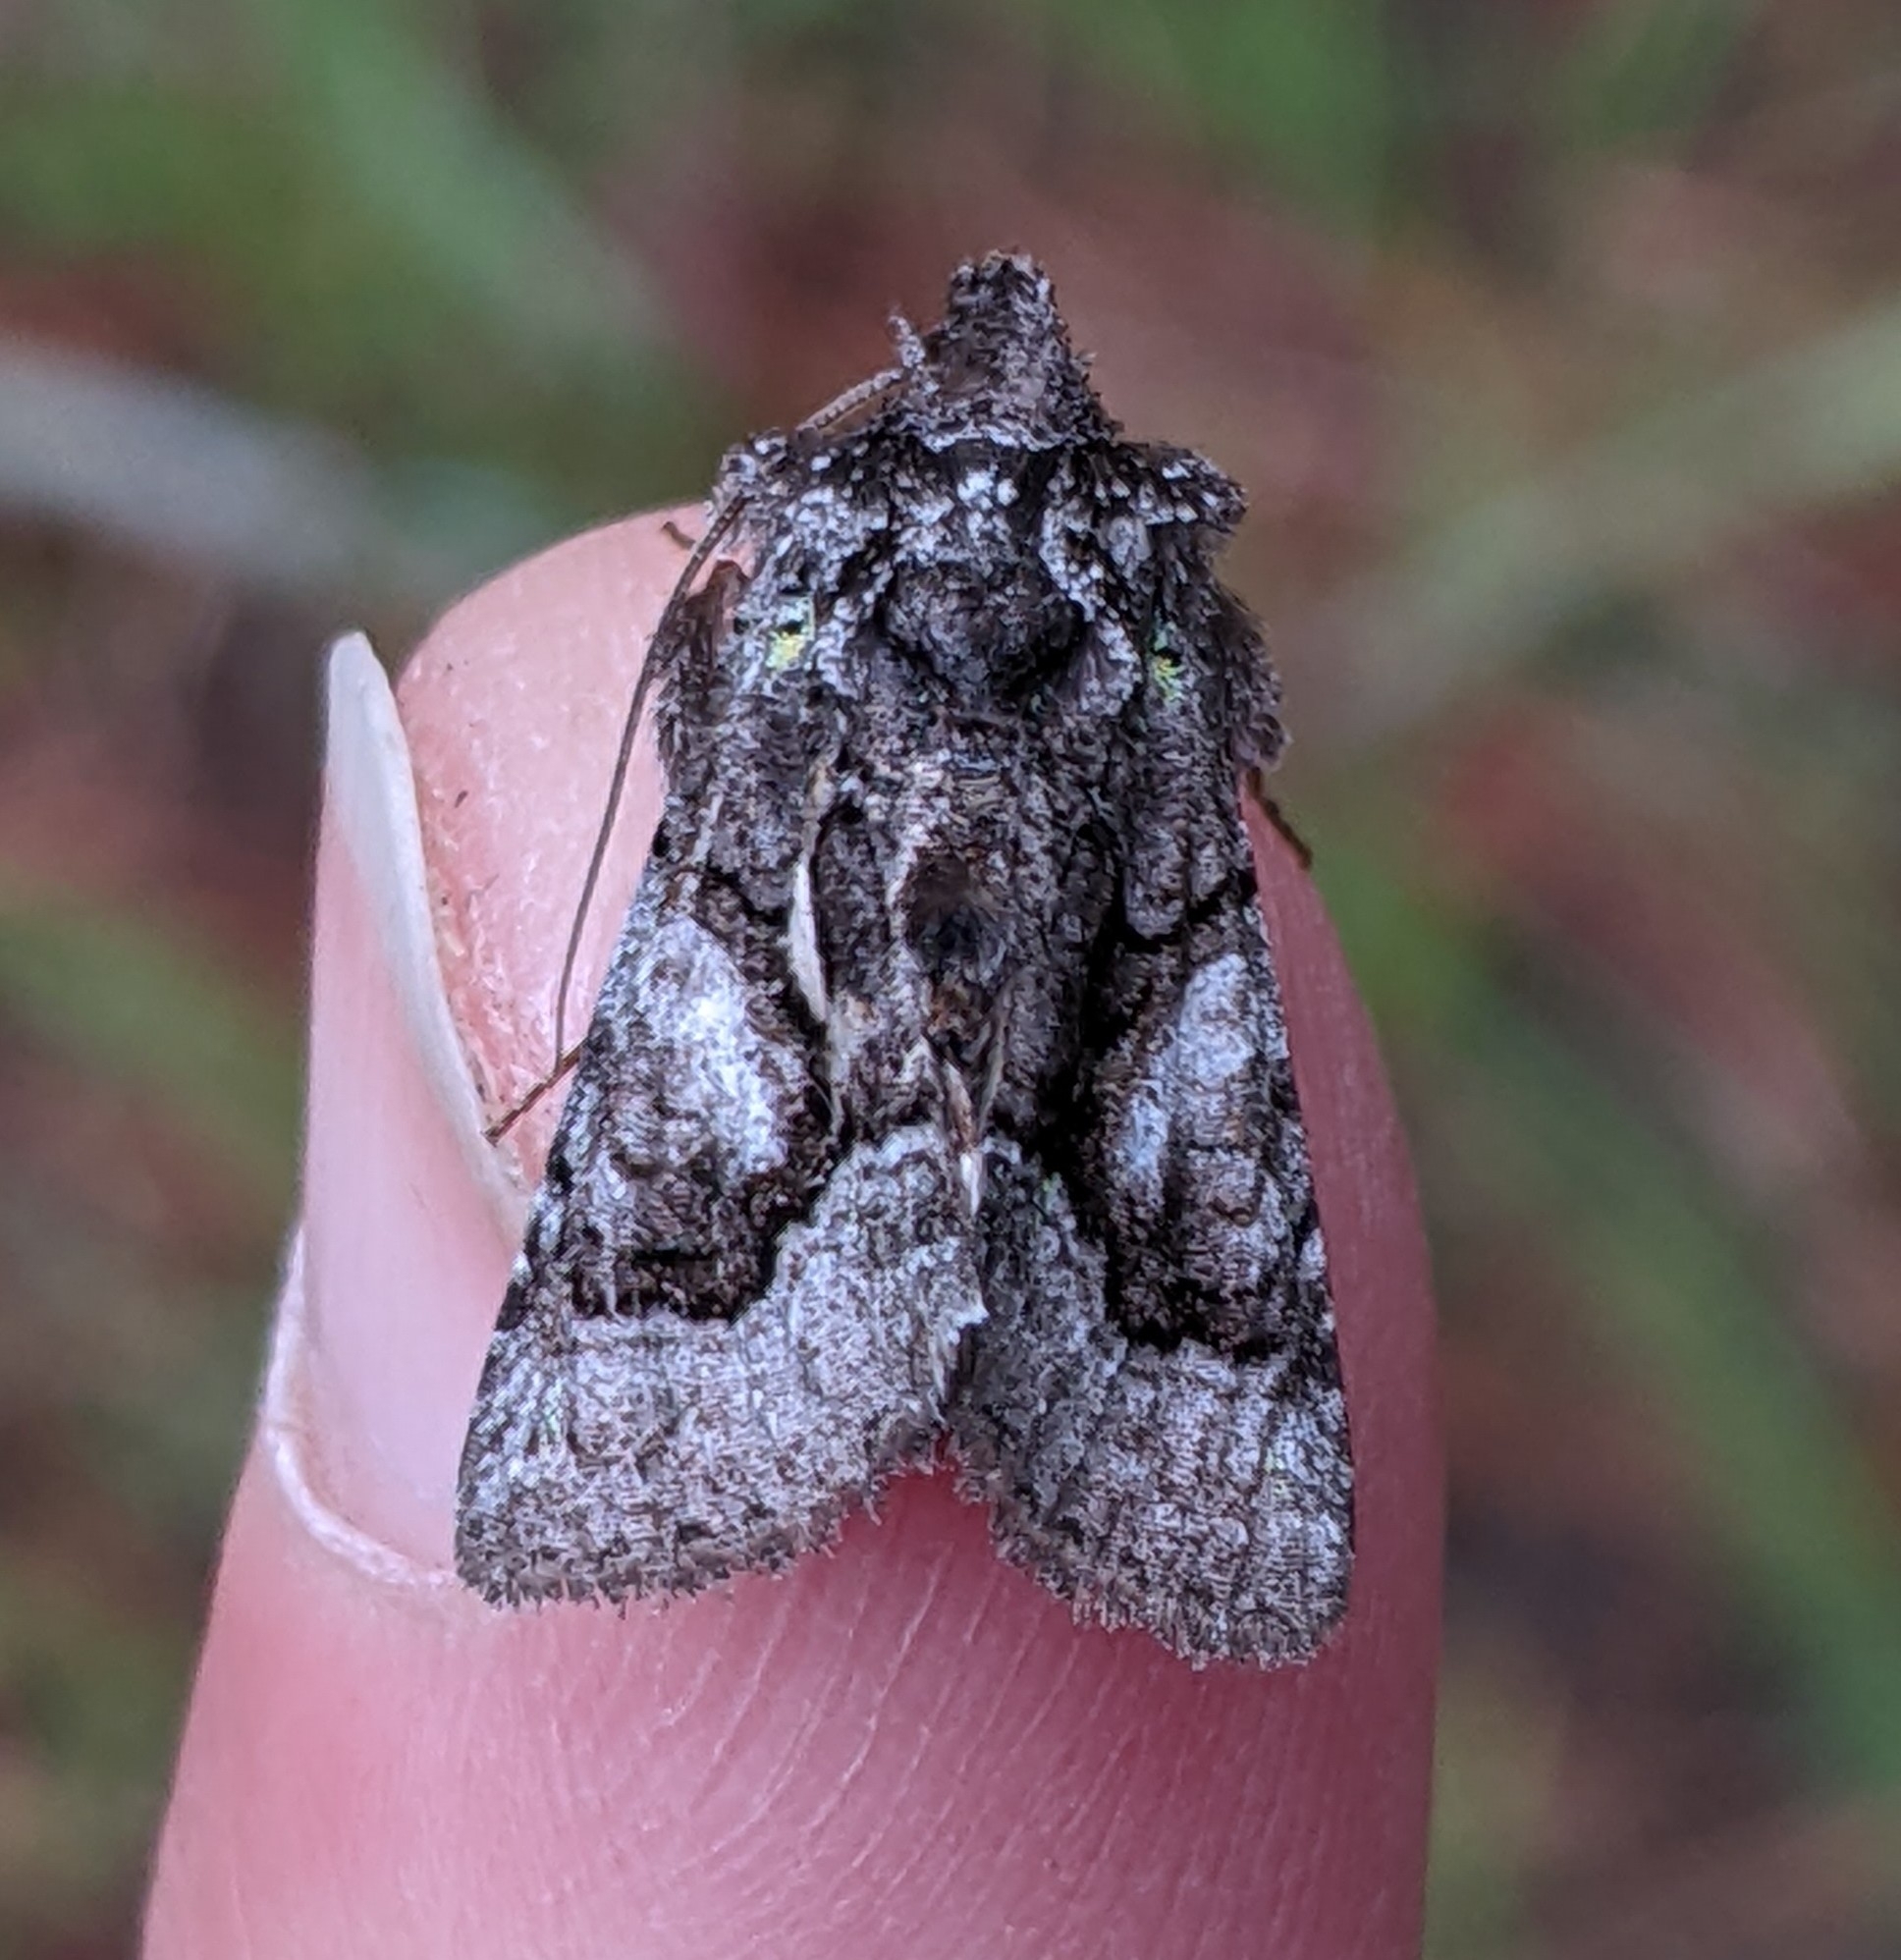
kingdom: Animalia
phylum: Arthropoda
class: Insecta
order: Lepidoptera
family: Noctuidae
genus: Behrensia
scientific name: Behrensia conchiformis
